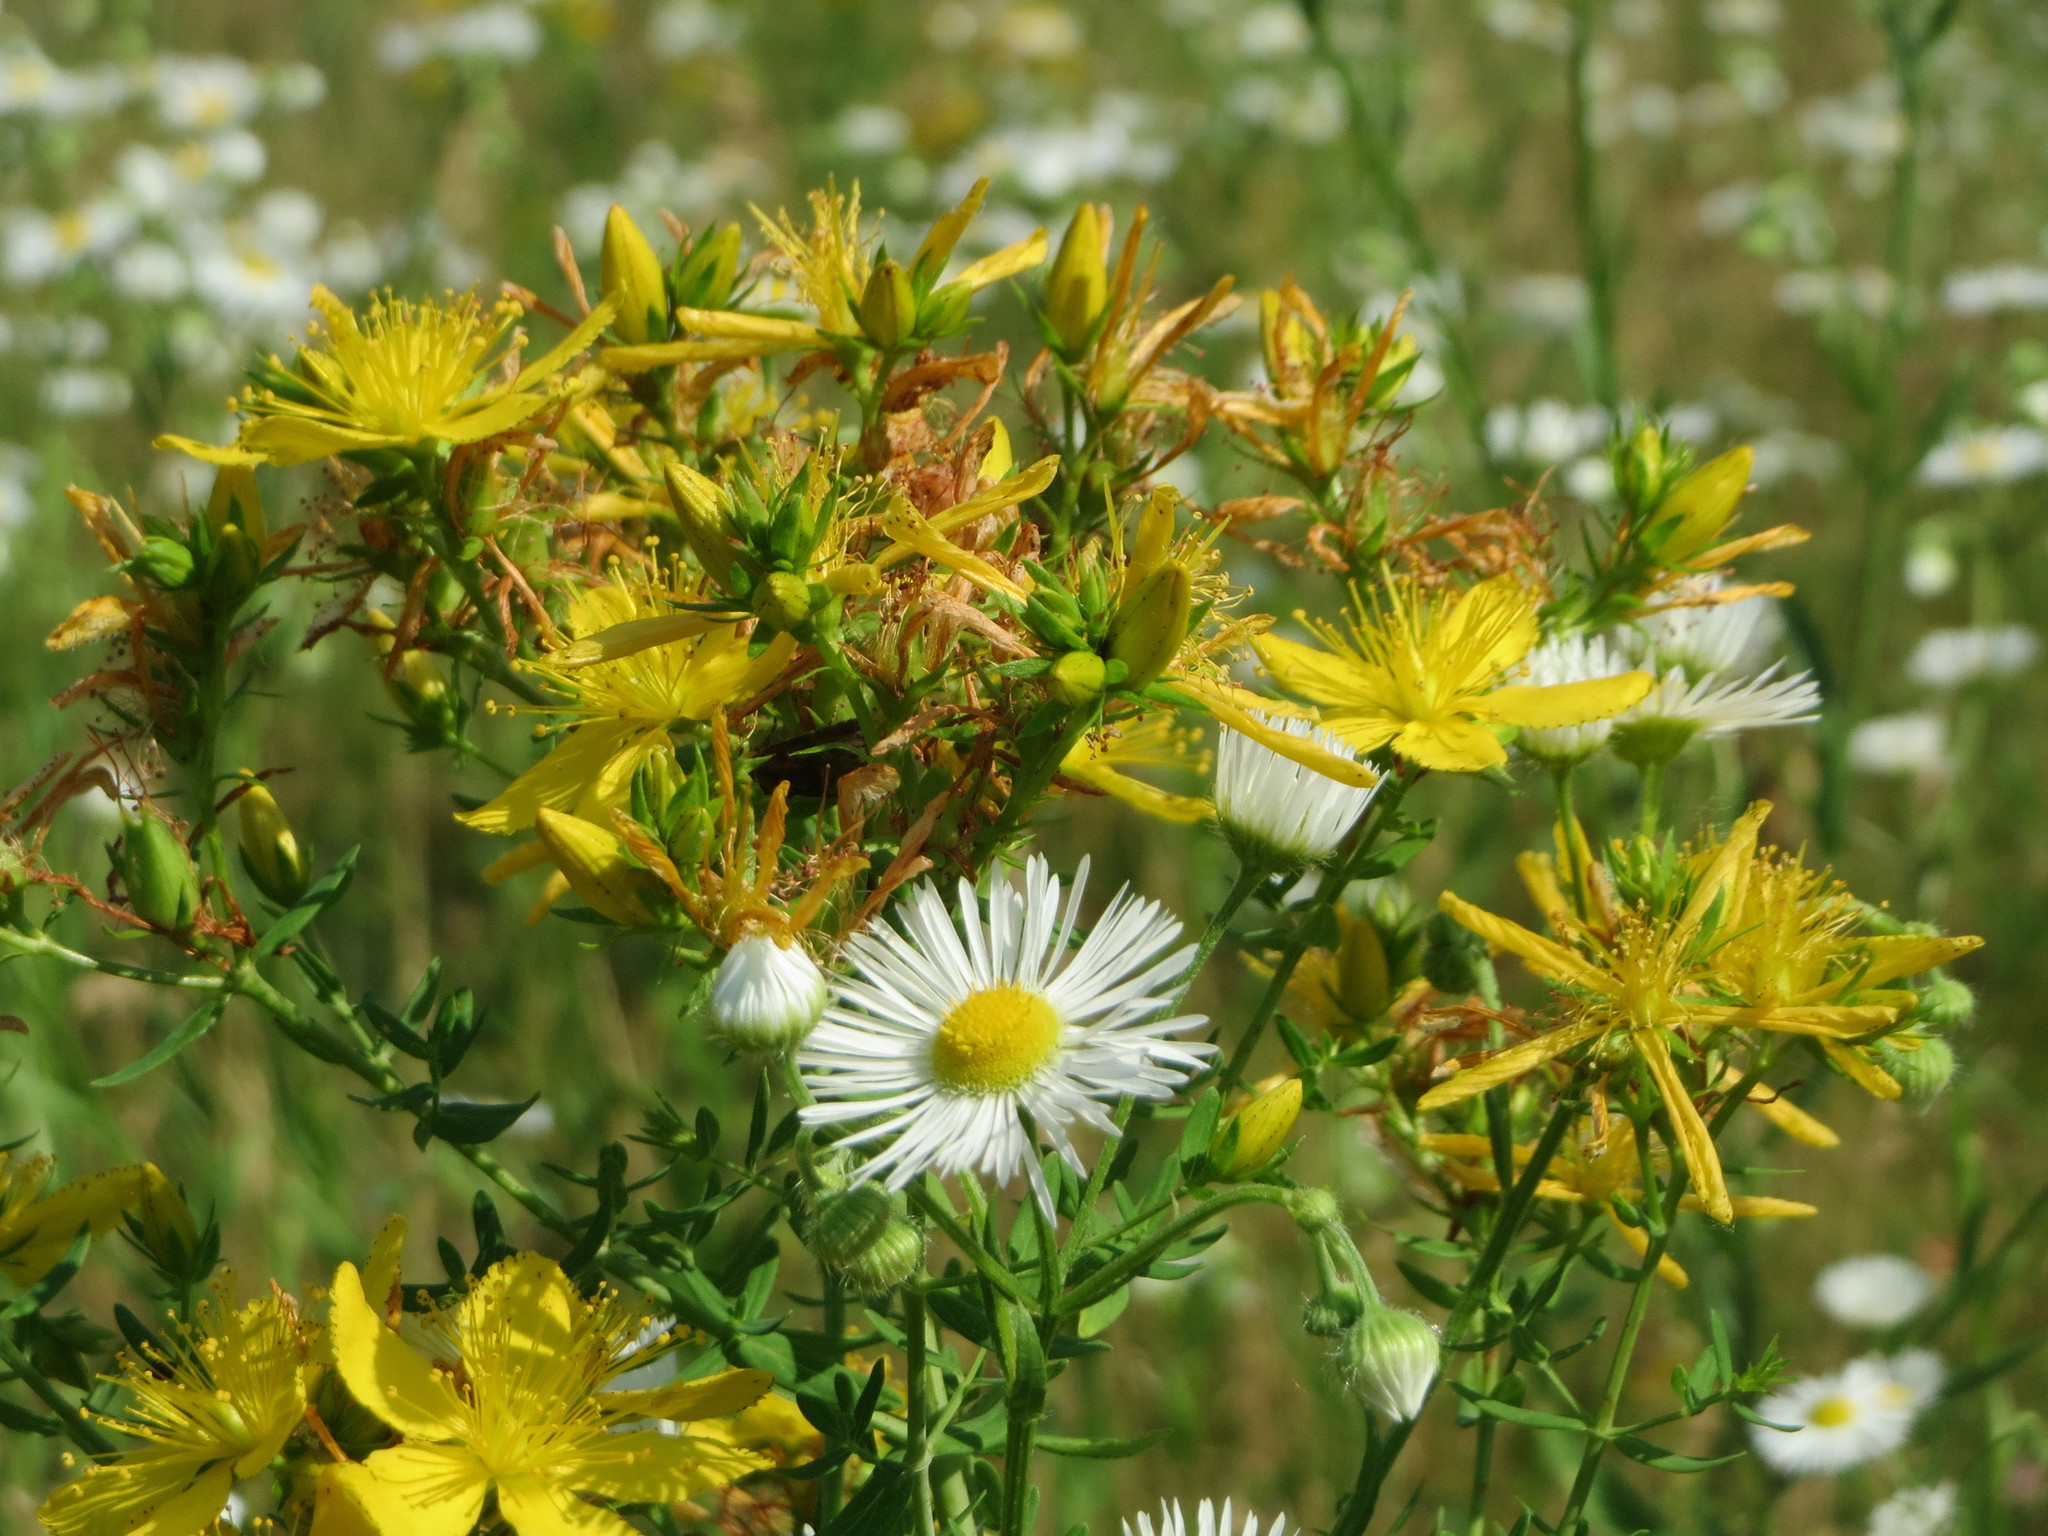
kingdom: Plantae
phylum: Tracheophyta
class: Magnoliopsida
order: Malpighiales
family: Hypericaceae
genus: Hypericum
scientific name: Hypericum perforatum
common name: Common st. johnswort
